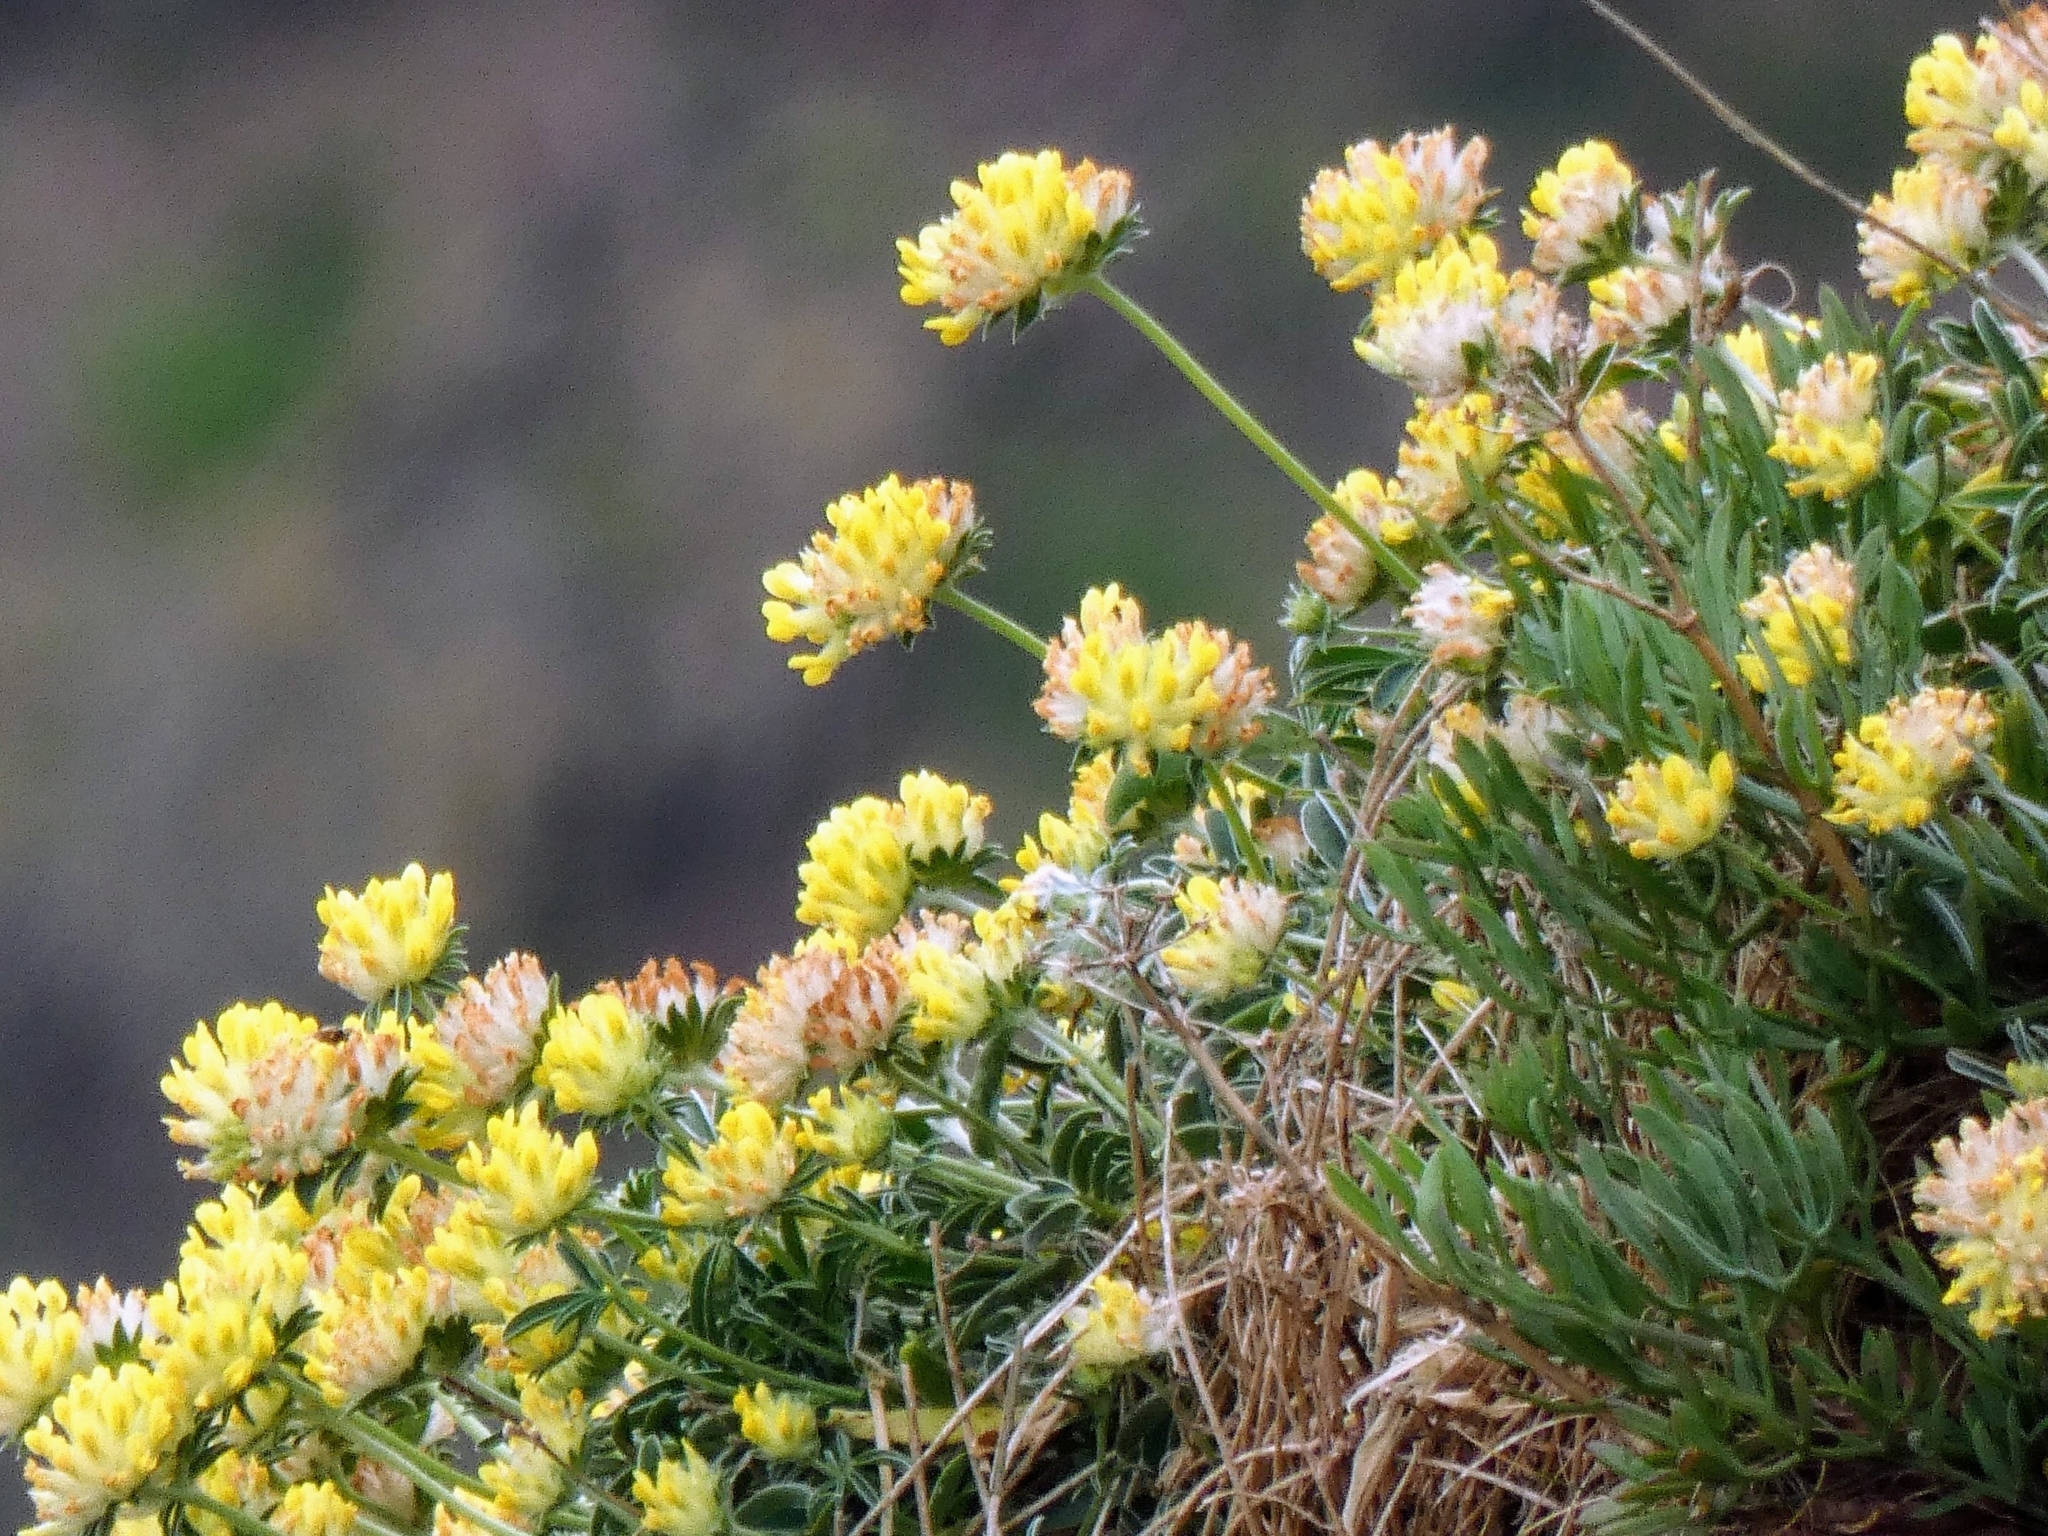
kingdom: Plantae
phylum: Tracheophyta
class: Magnoliopsida
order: Fabales
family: Fabaceae
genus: Anthyllis
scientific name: Anthyllis vulneraria
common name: Kidney vetch
